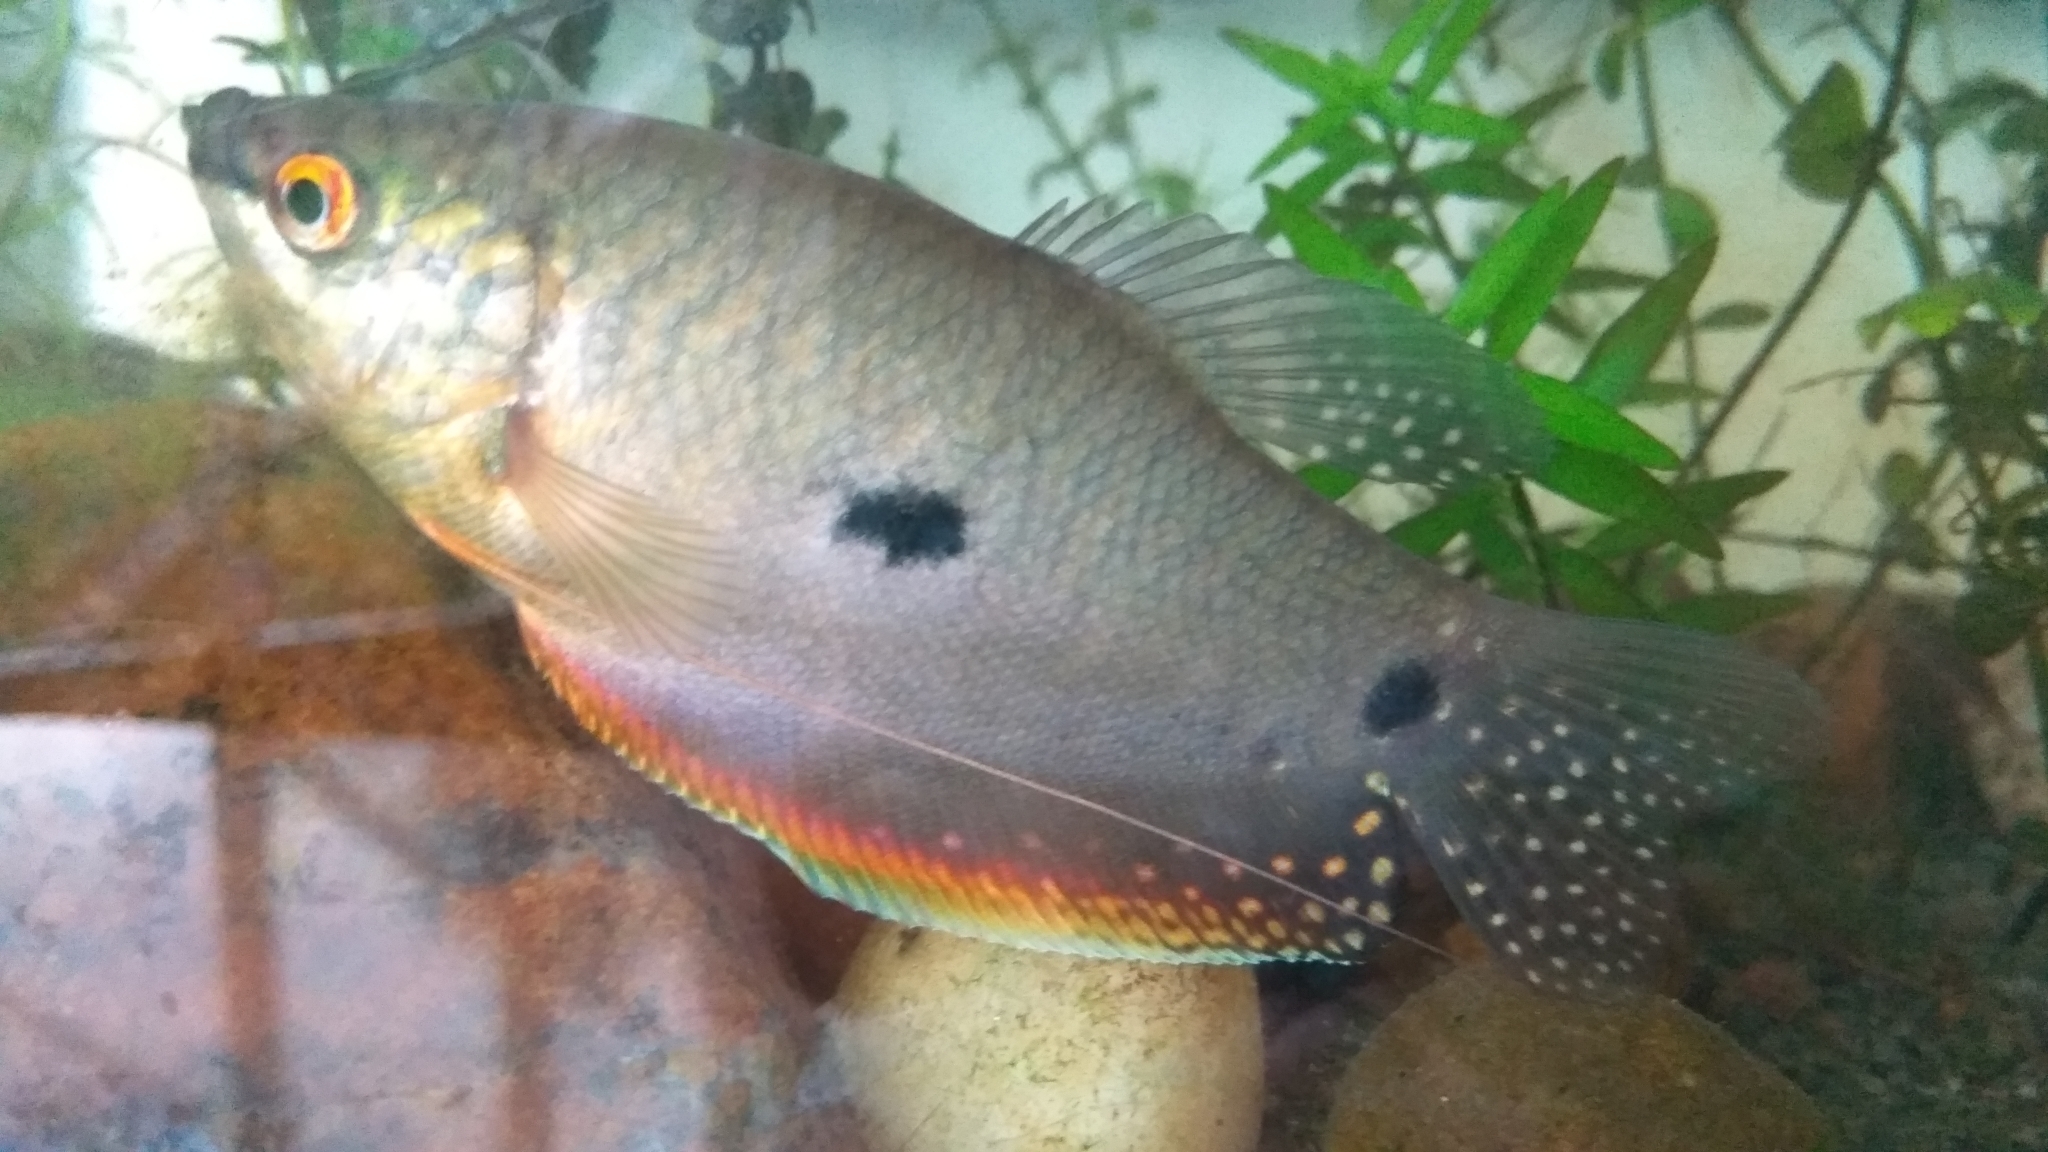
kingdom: Animalia
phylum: Chordata
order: Perciformes
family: Osphronemidae
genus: Trichopodus
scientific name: Trichopodus trichopterus
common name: Blue gourami
